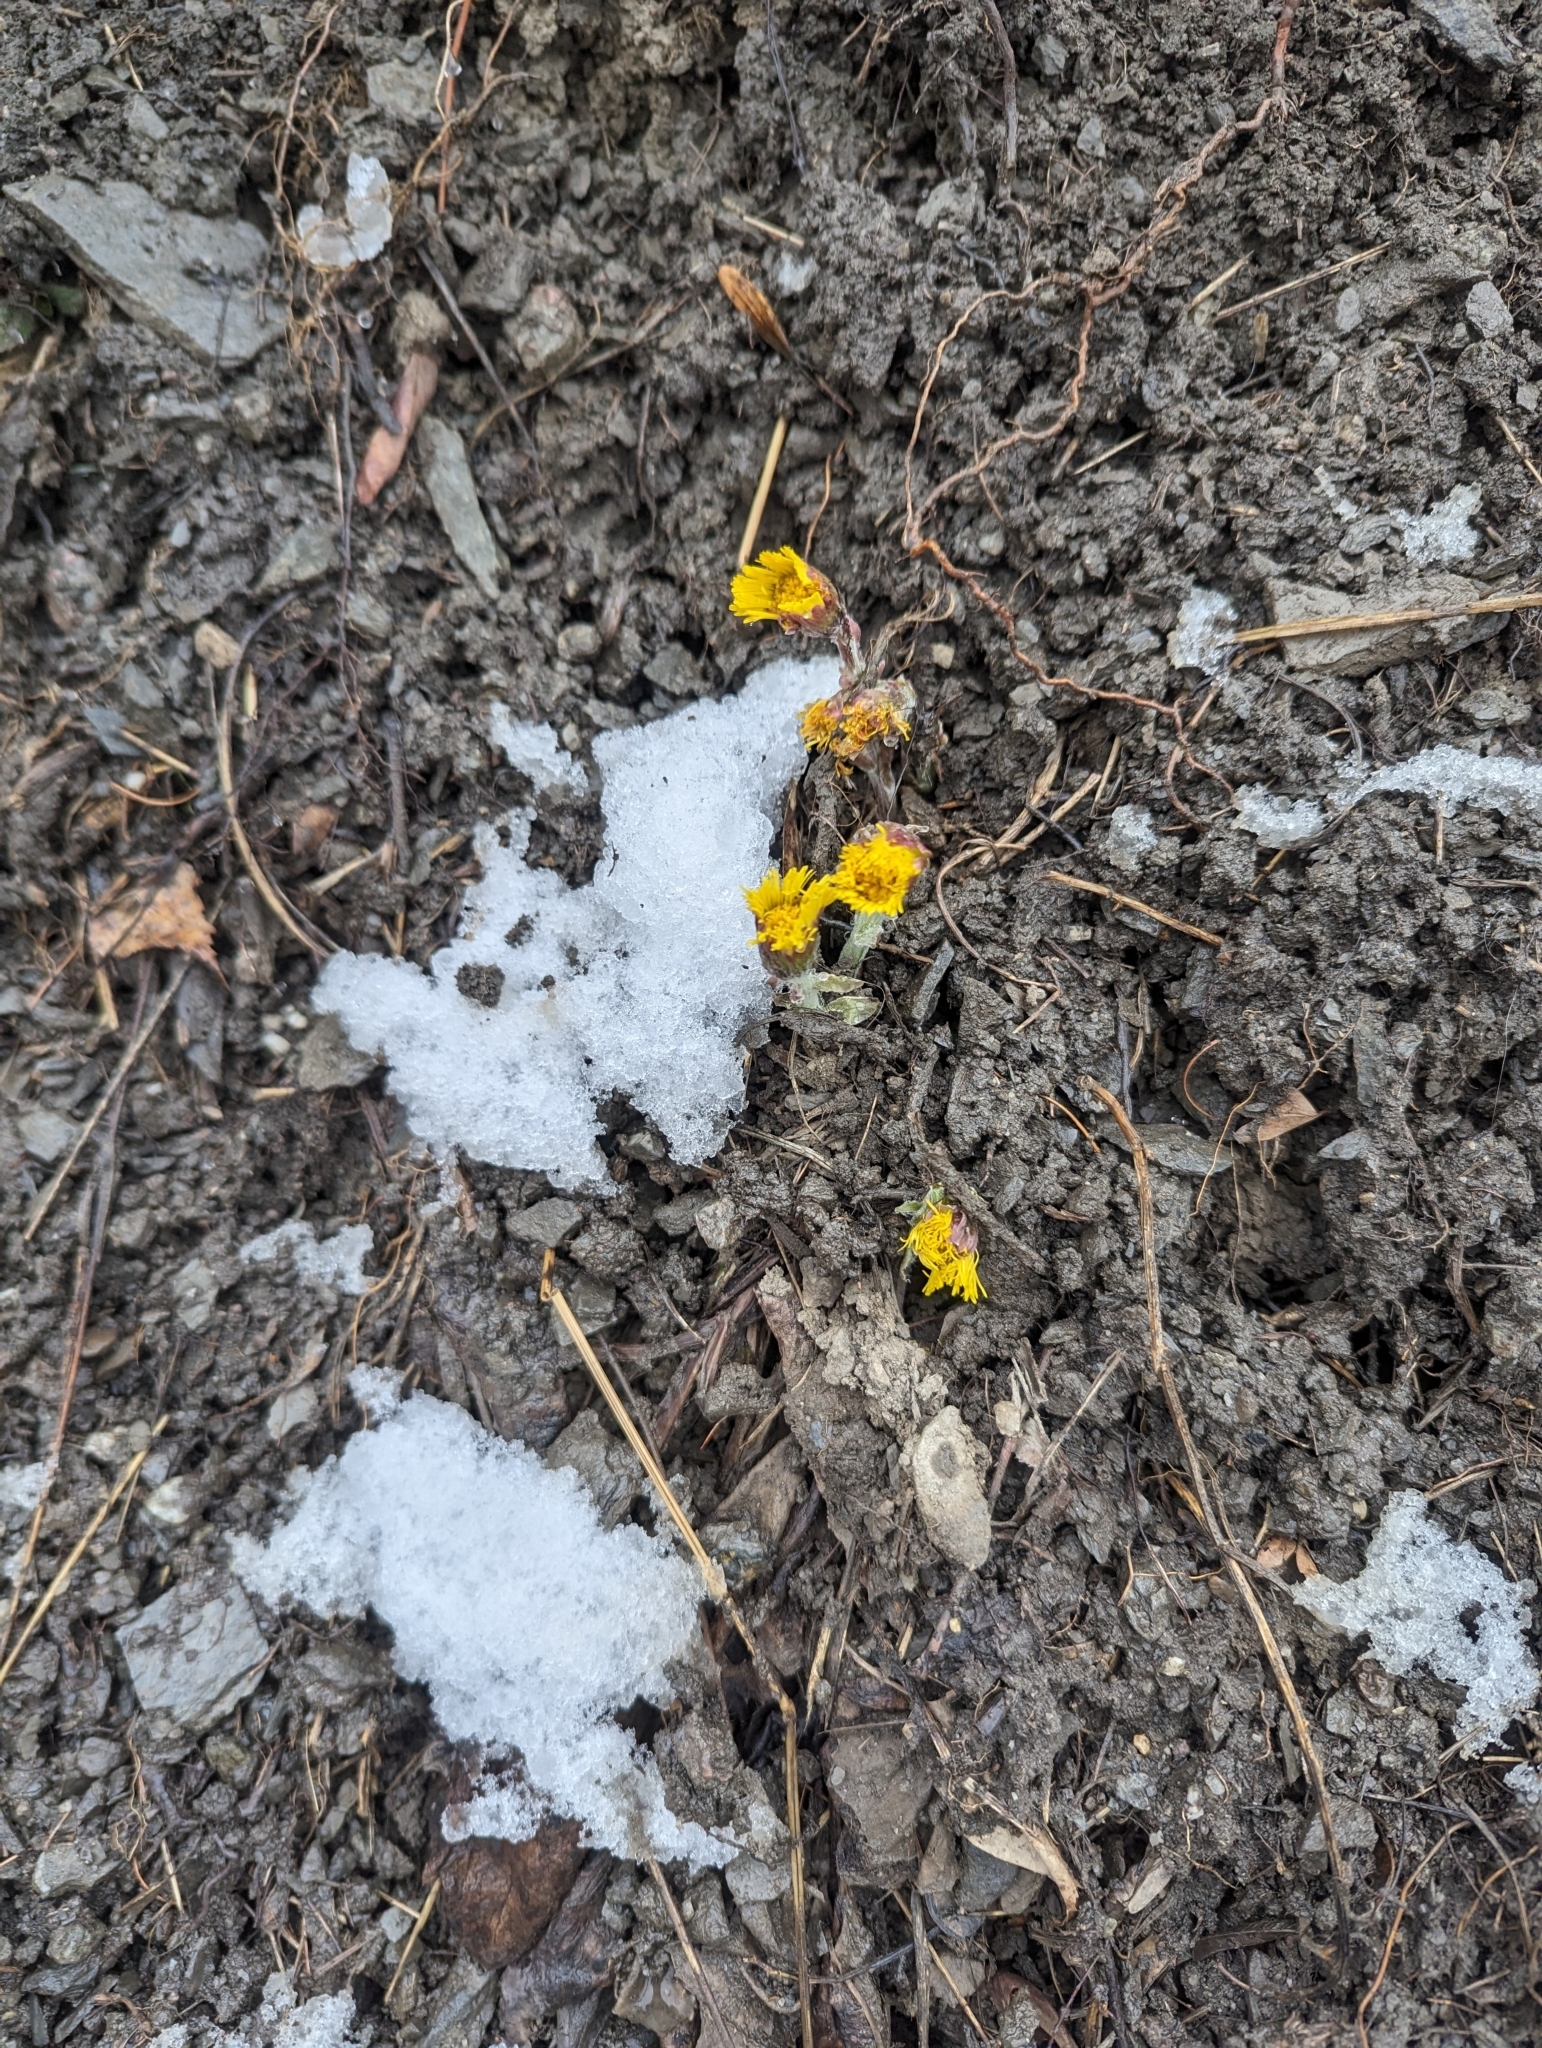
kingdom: Plantae
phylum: Tracheophyta
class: Magnoliopsida
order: Asterales
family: Asteraceae
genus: Tussilago
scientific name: Tussilago farfara
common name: Coltsfoot
